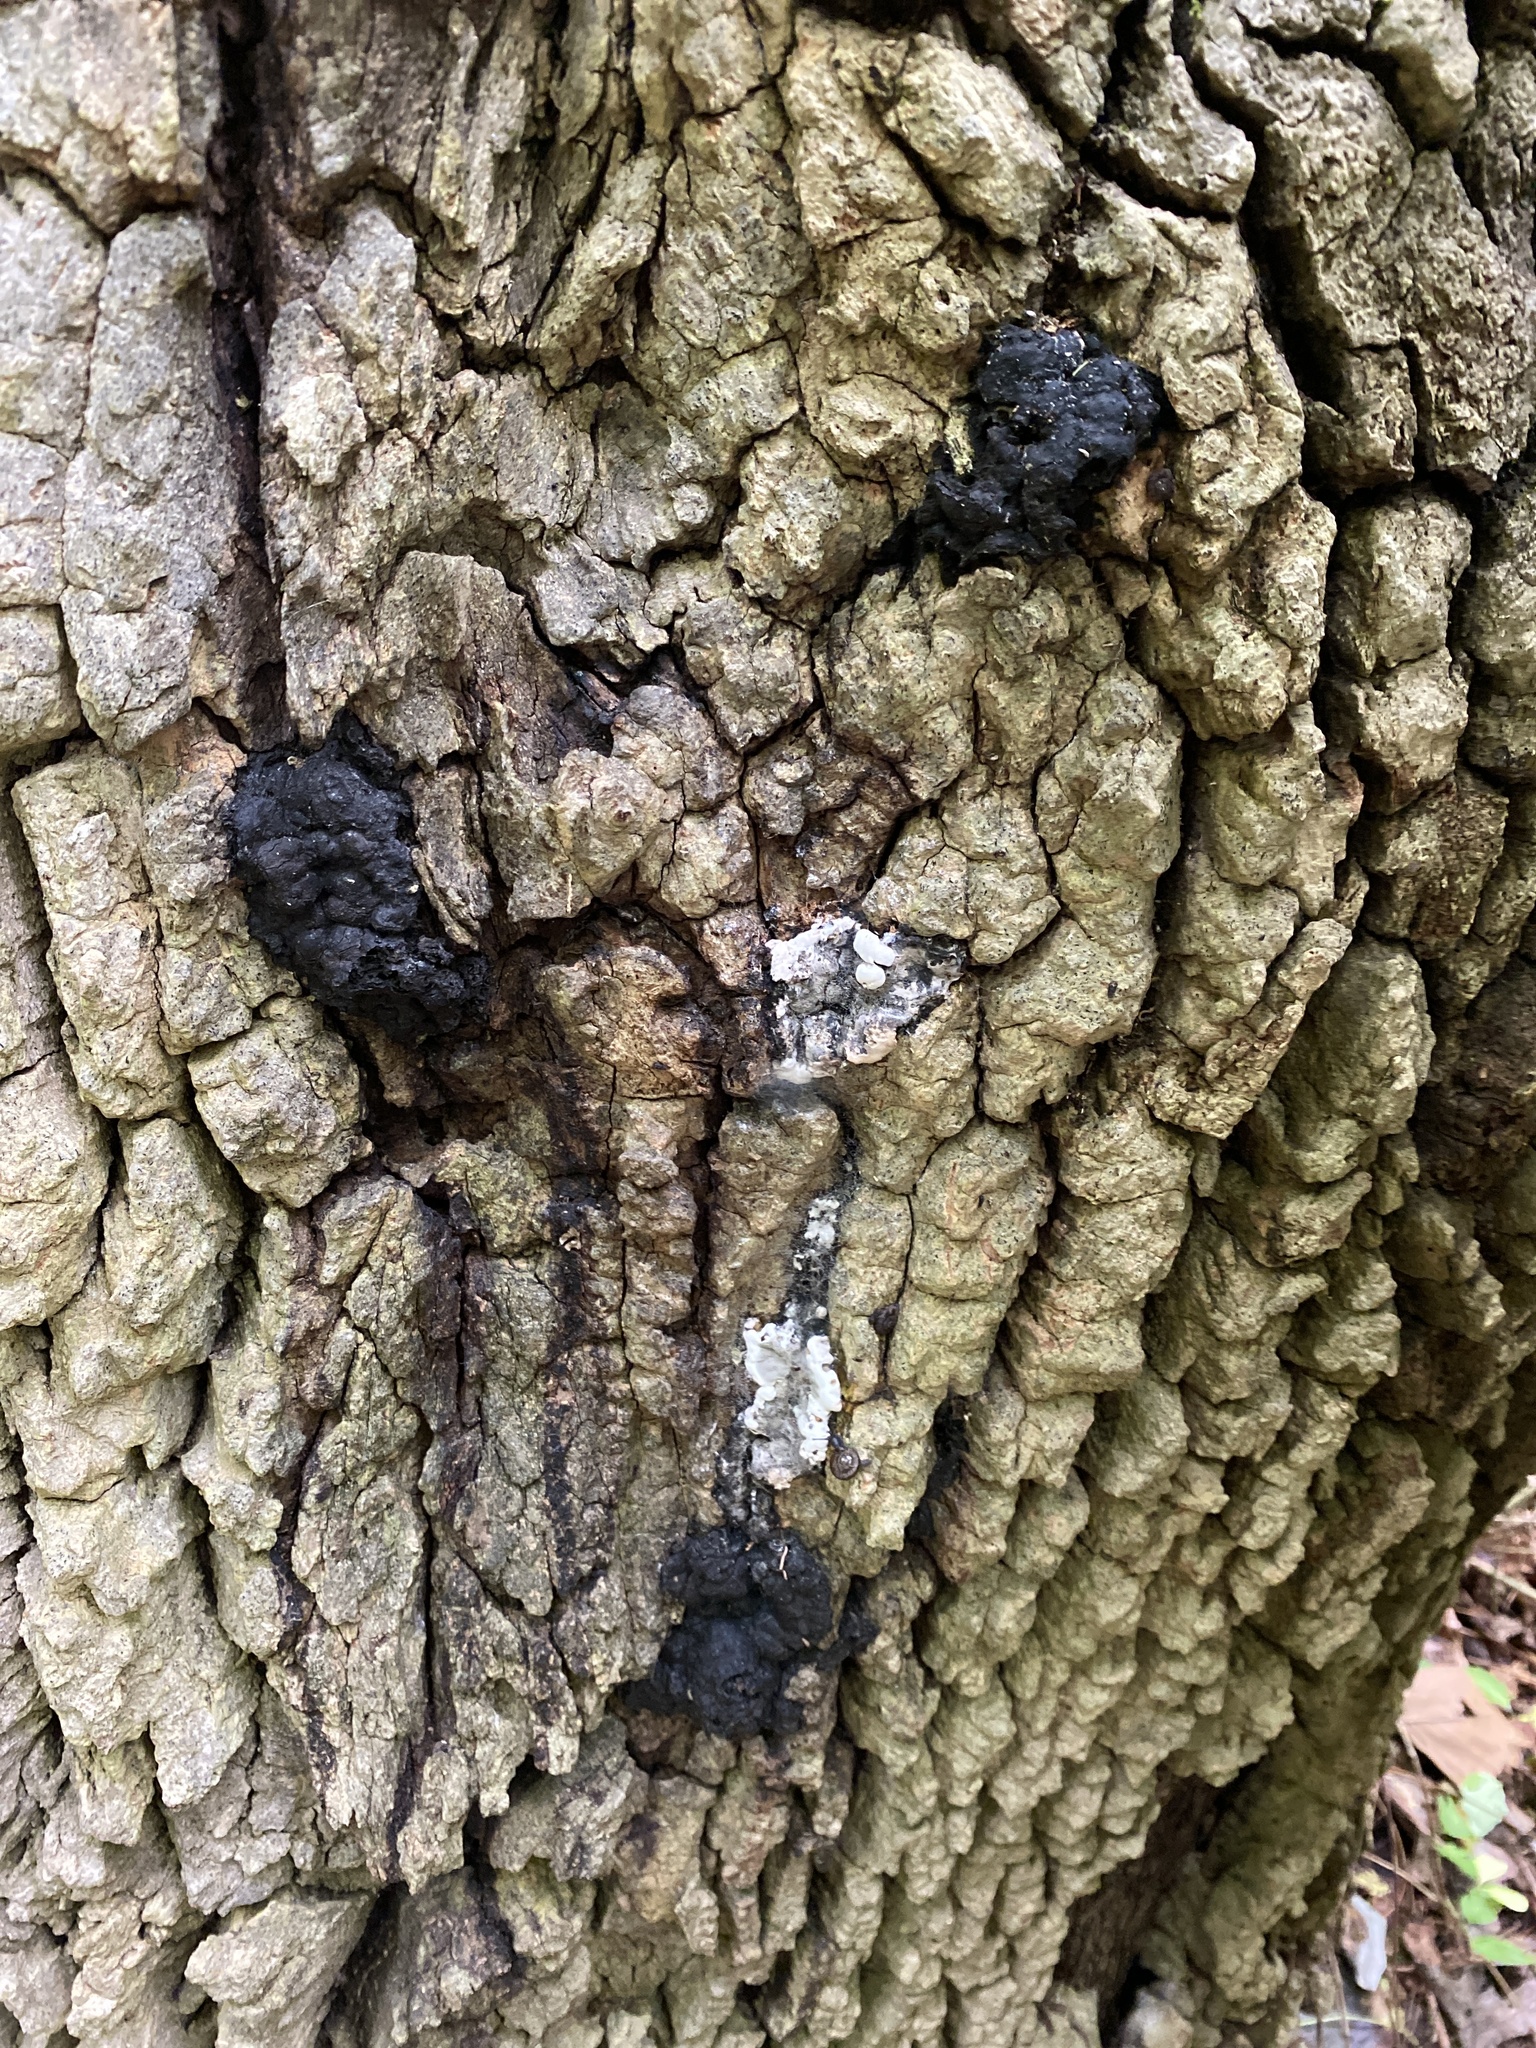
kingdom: Fungi
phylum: Ascomycota
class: Sordariomycetes
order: Xylariales
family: Xylariaceae
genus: Kretzschmaria
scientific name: Kretzschmaria deusta
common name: Brittle cinder
